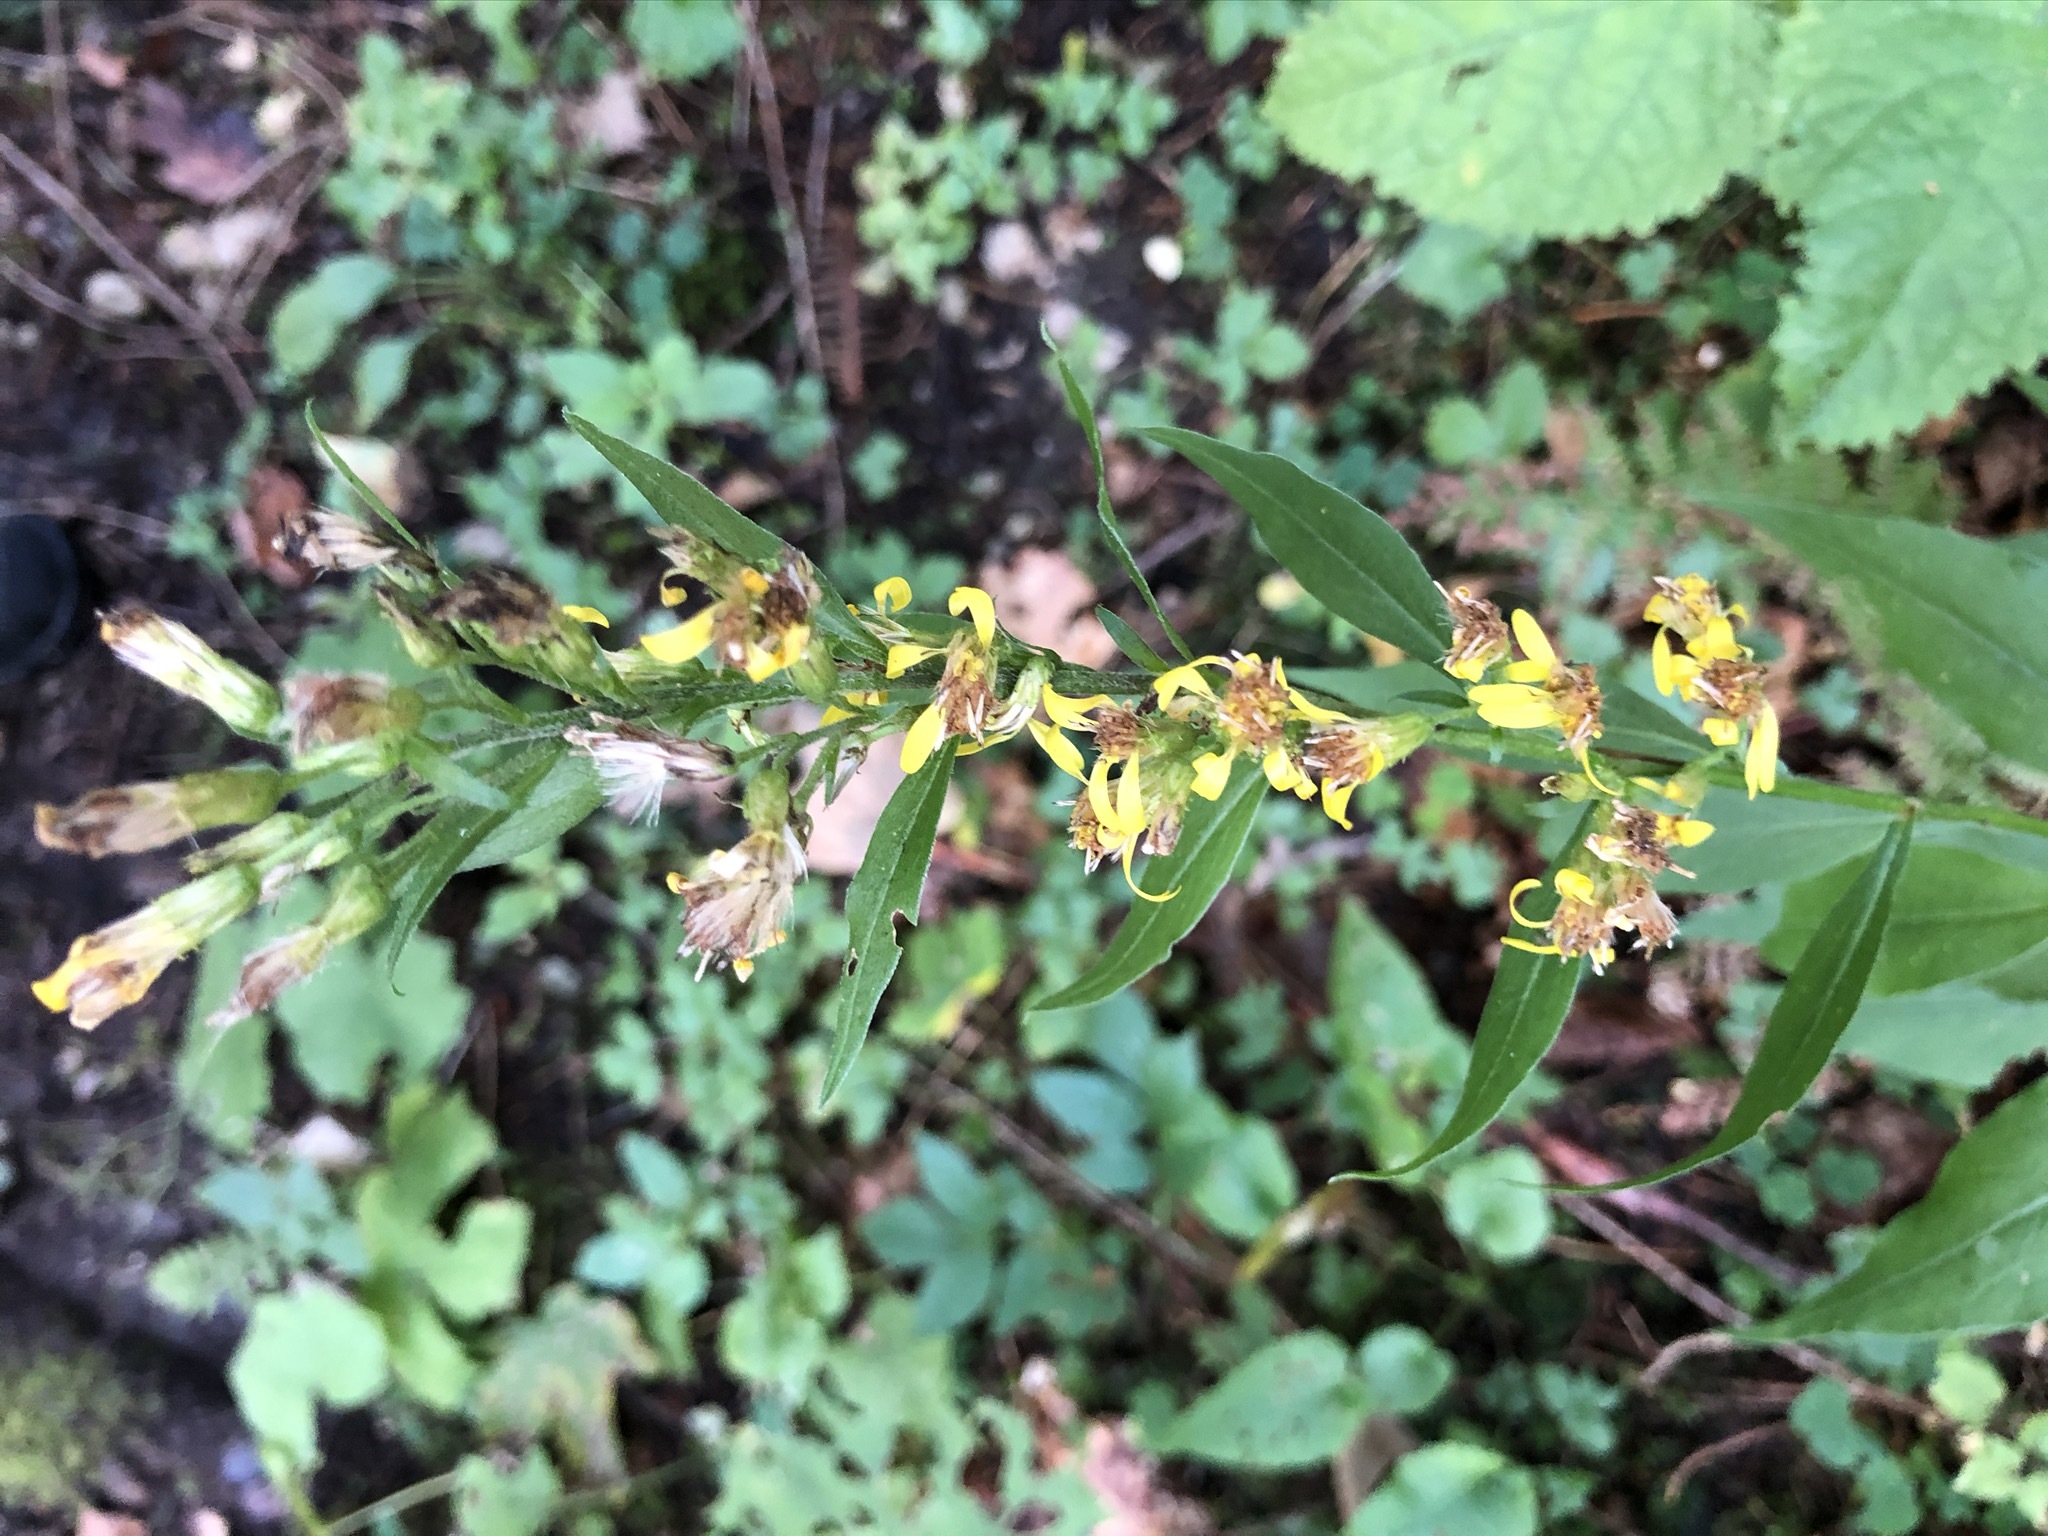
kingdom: Plantae
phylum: Tracheophyta
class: Magnoliopsida
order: Asterales
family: Asteraceae
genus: Solidago
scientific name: Solidago virgaurea
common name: Goldenrod
